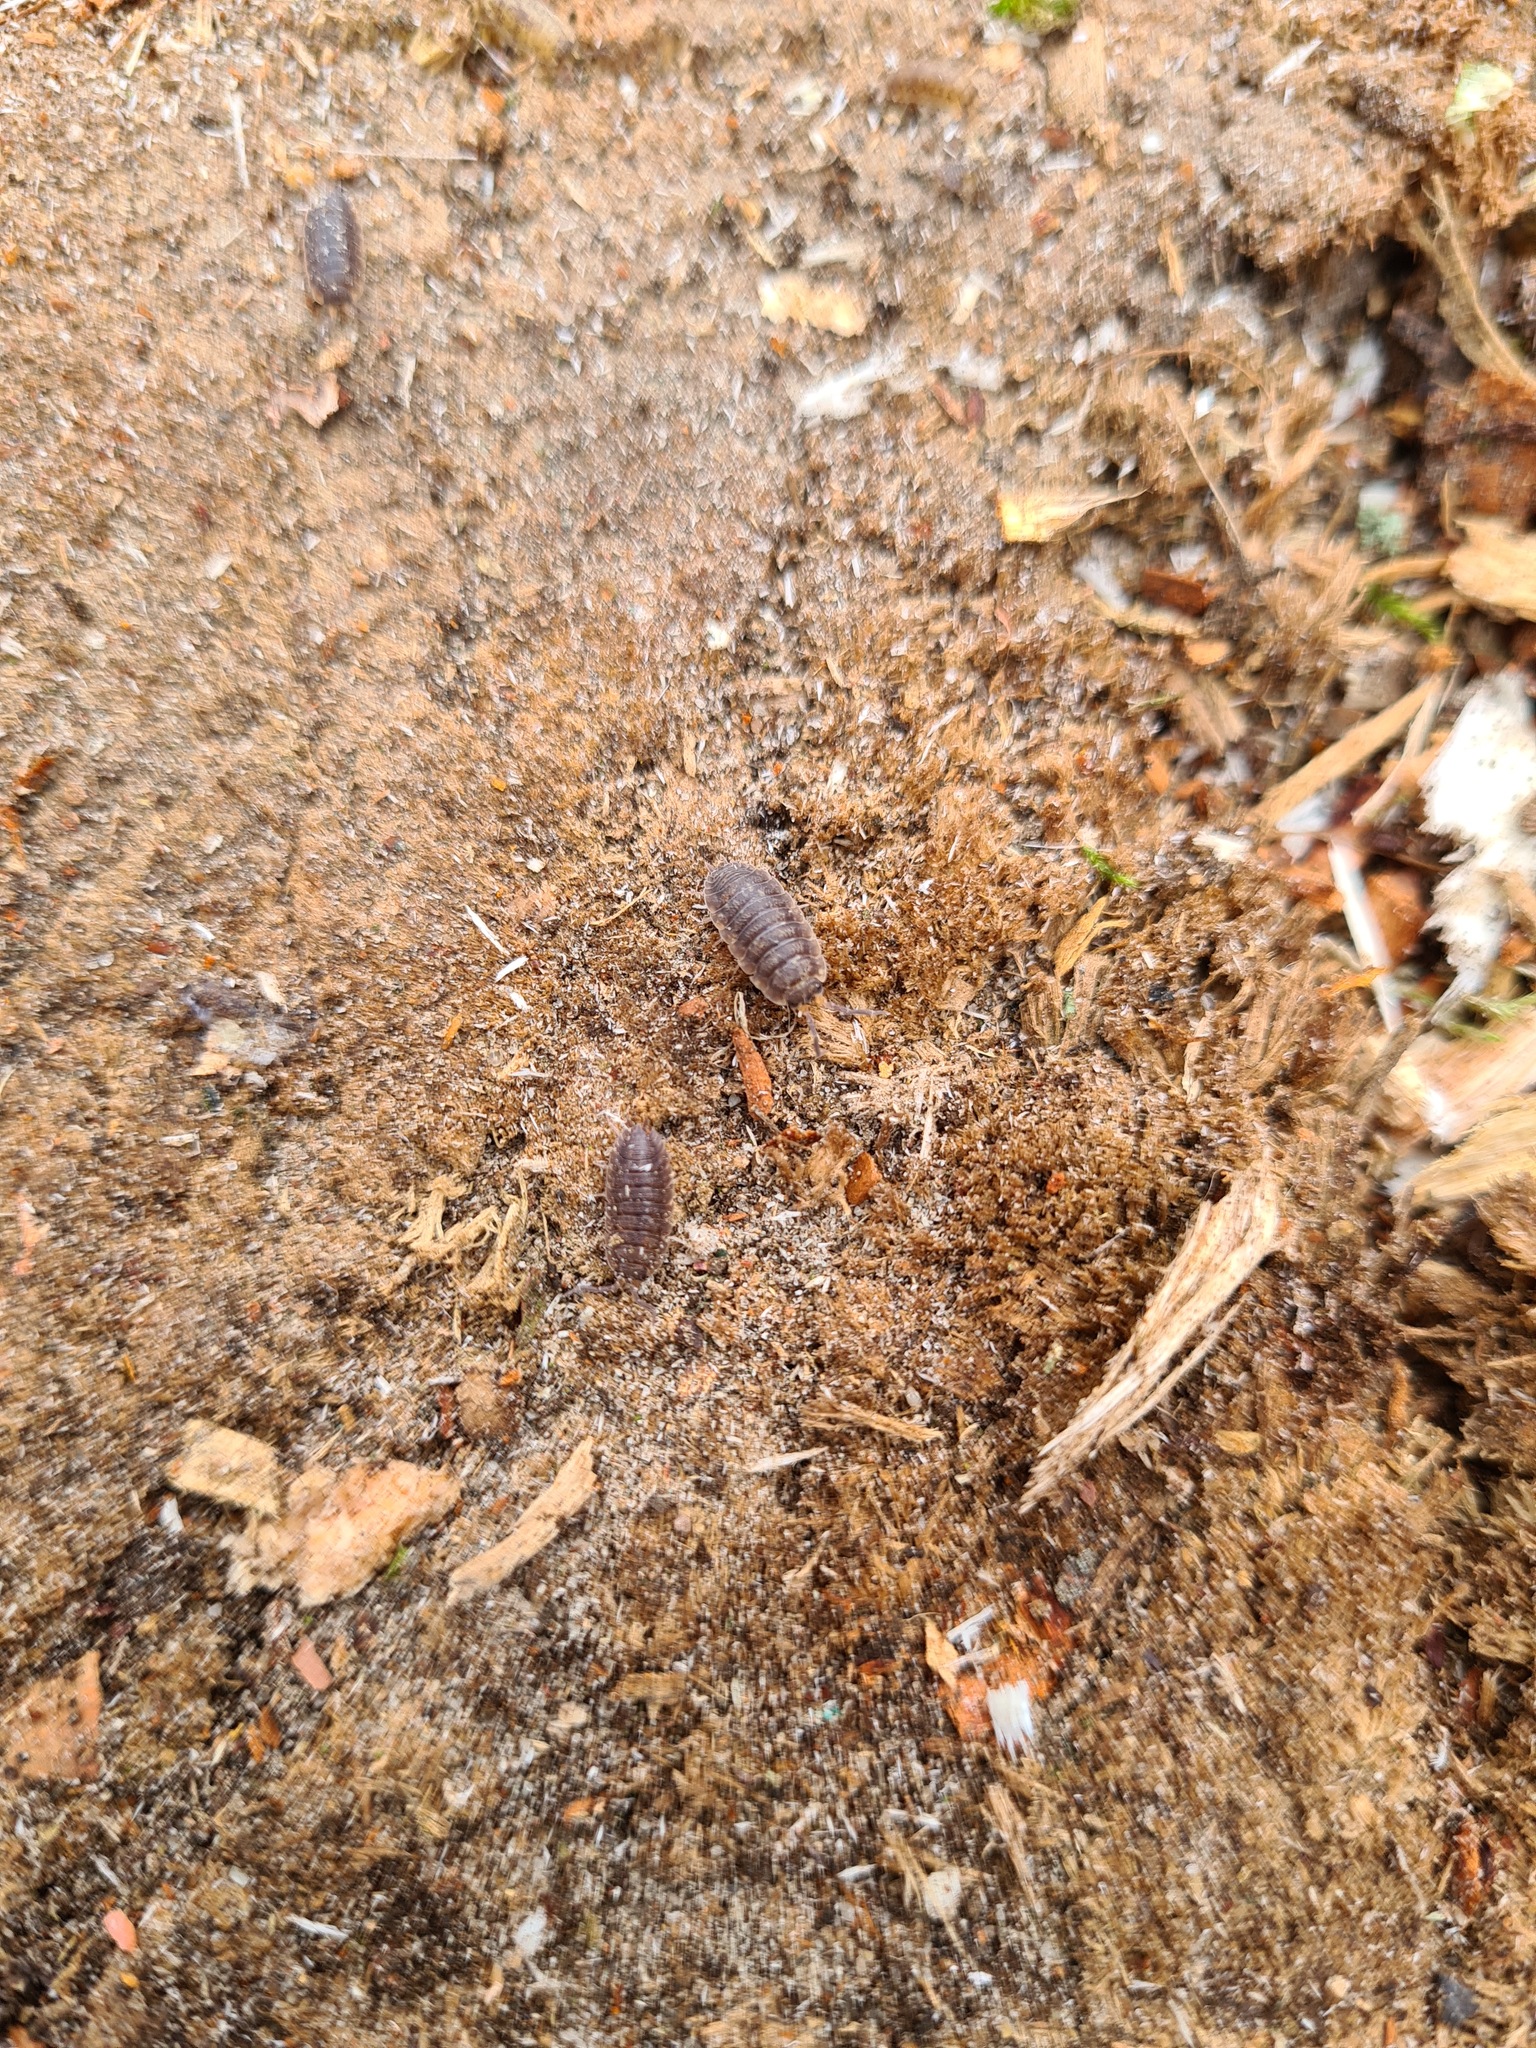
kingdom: Animalia
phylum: Arthropoda
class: Malacostraca
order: Isopoda
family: Porcellionidae
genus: Porcellio
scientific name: Porcellio scaber
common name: Common rough woodlouse
